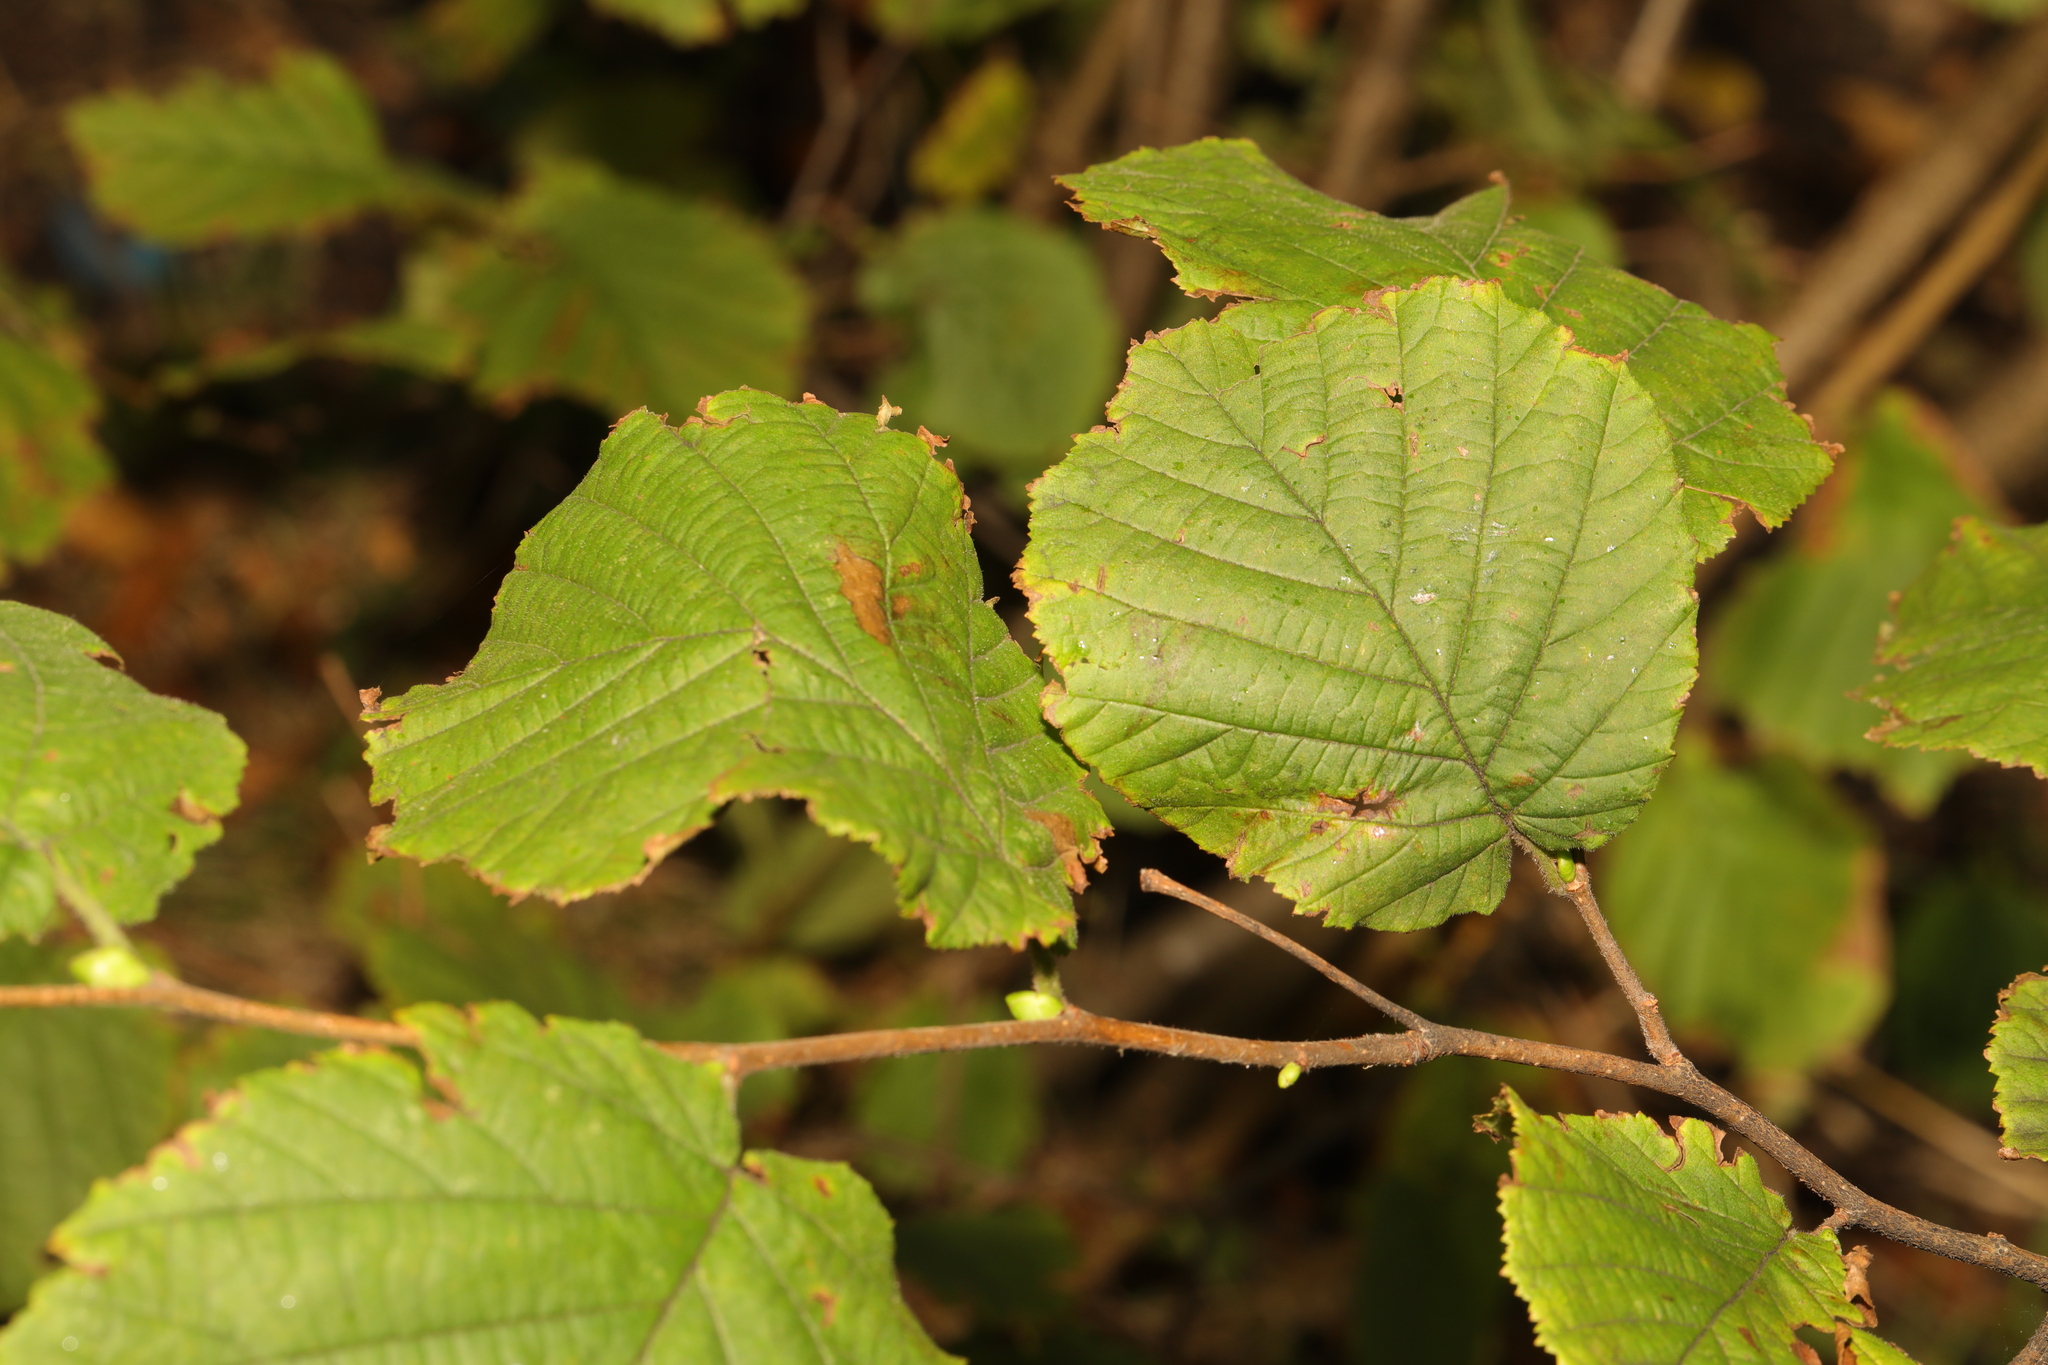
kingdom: Plantae
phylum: Tracheophyta
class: Magnoliopsida
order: Fagales
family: Betulaceae
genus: Corylus
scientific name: Corylus avellana
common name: European hazel
